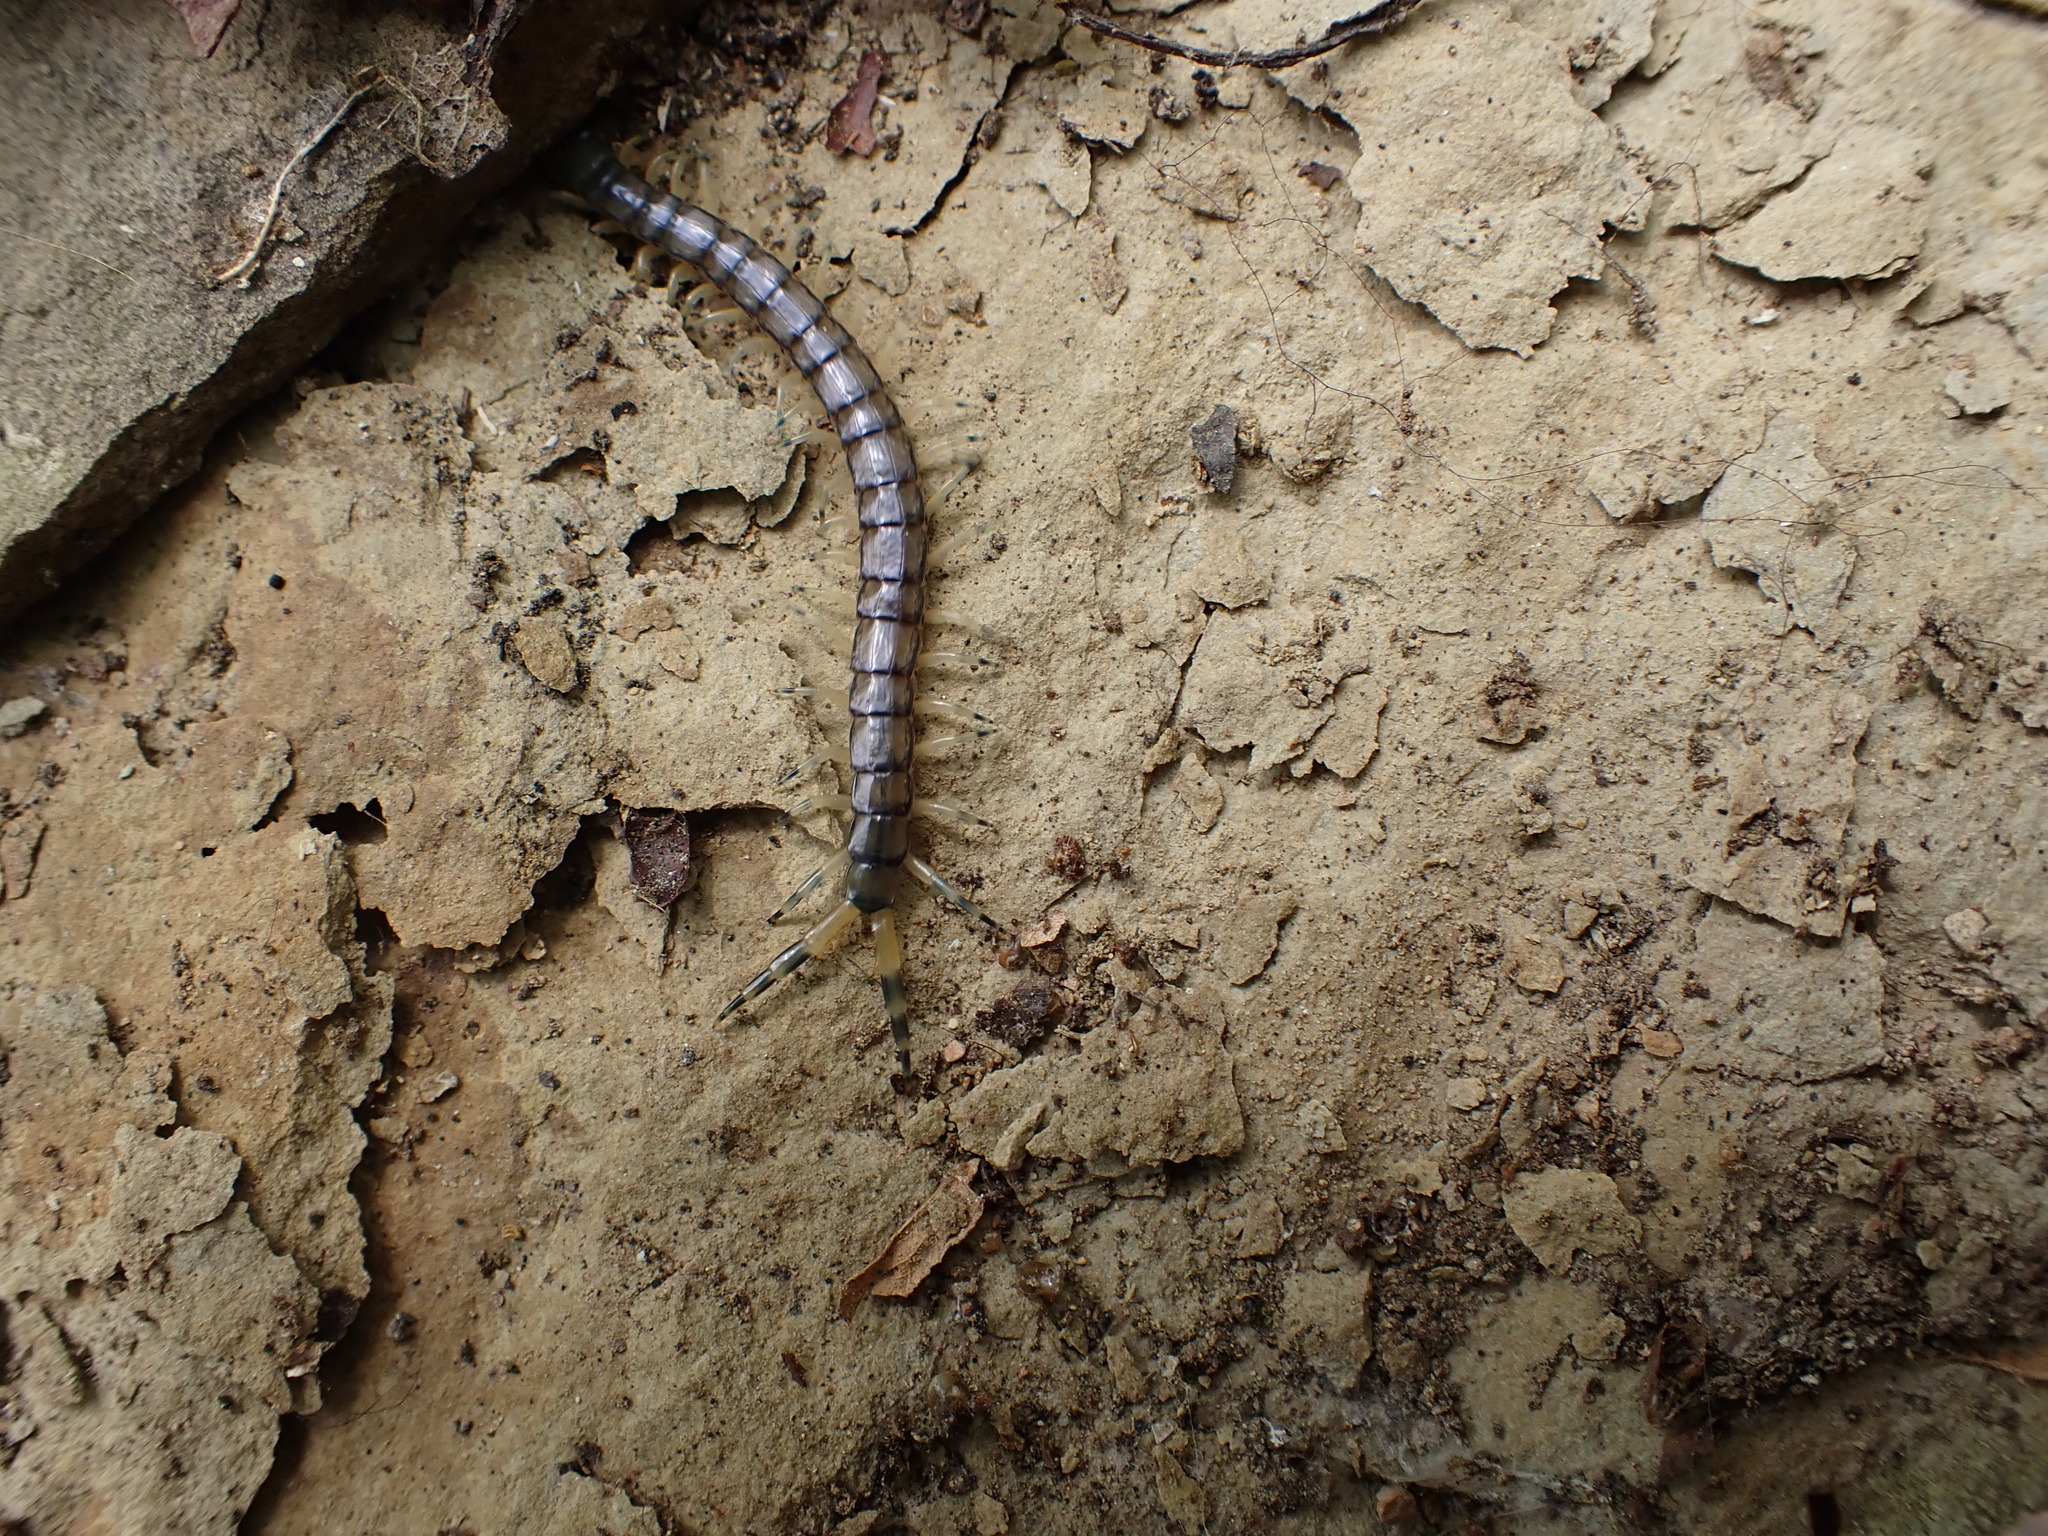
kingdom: Animalia
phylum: Arthropoda
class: Chilopoda
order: Scolopendromorpha
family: Scolopendridae
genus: Hemiscolopendra
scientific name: Hemiscolopendra marginata
